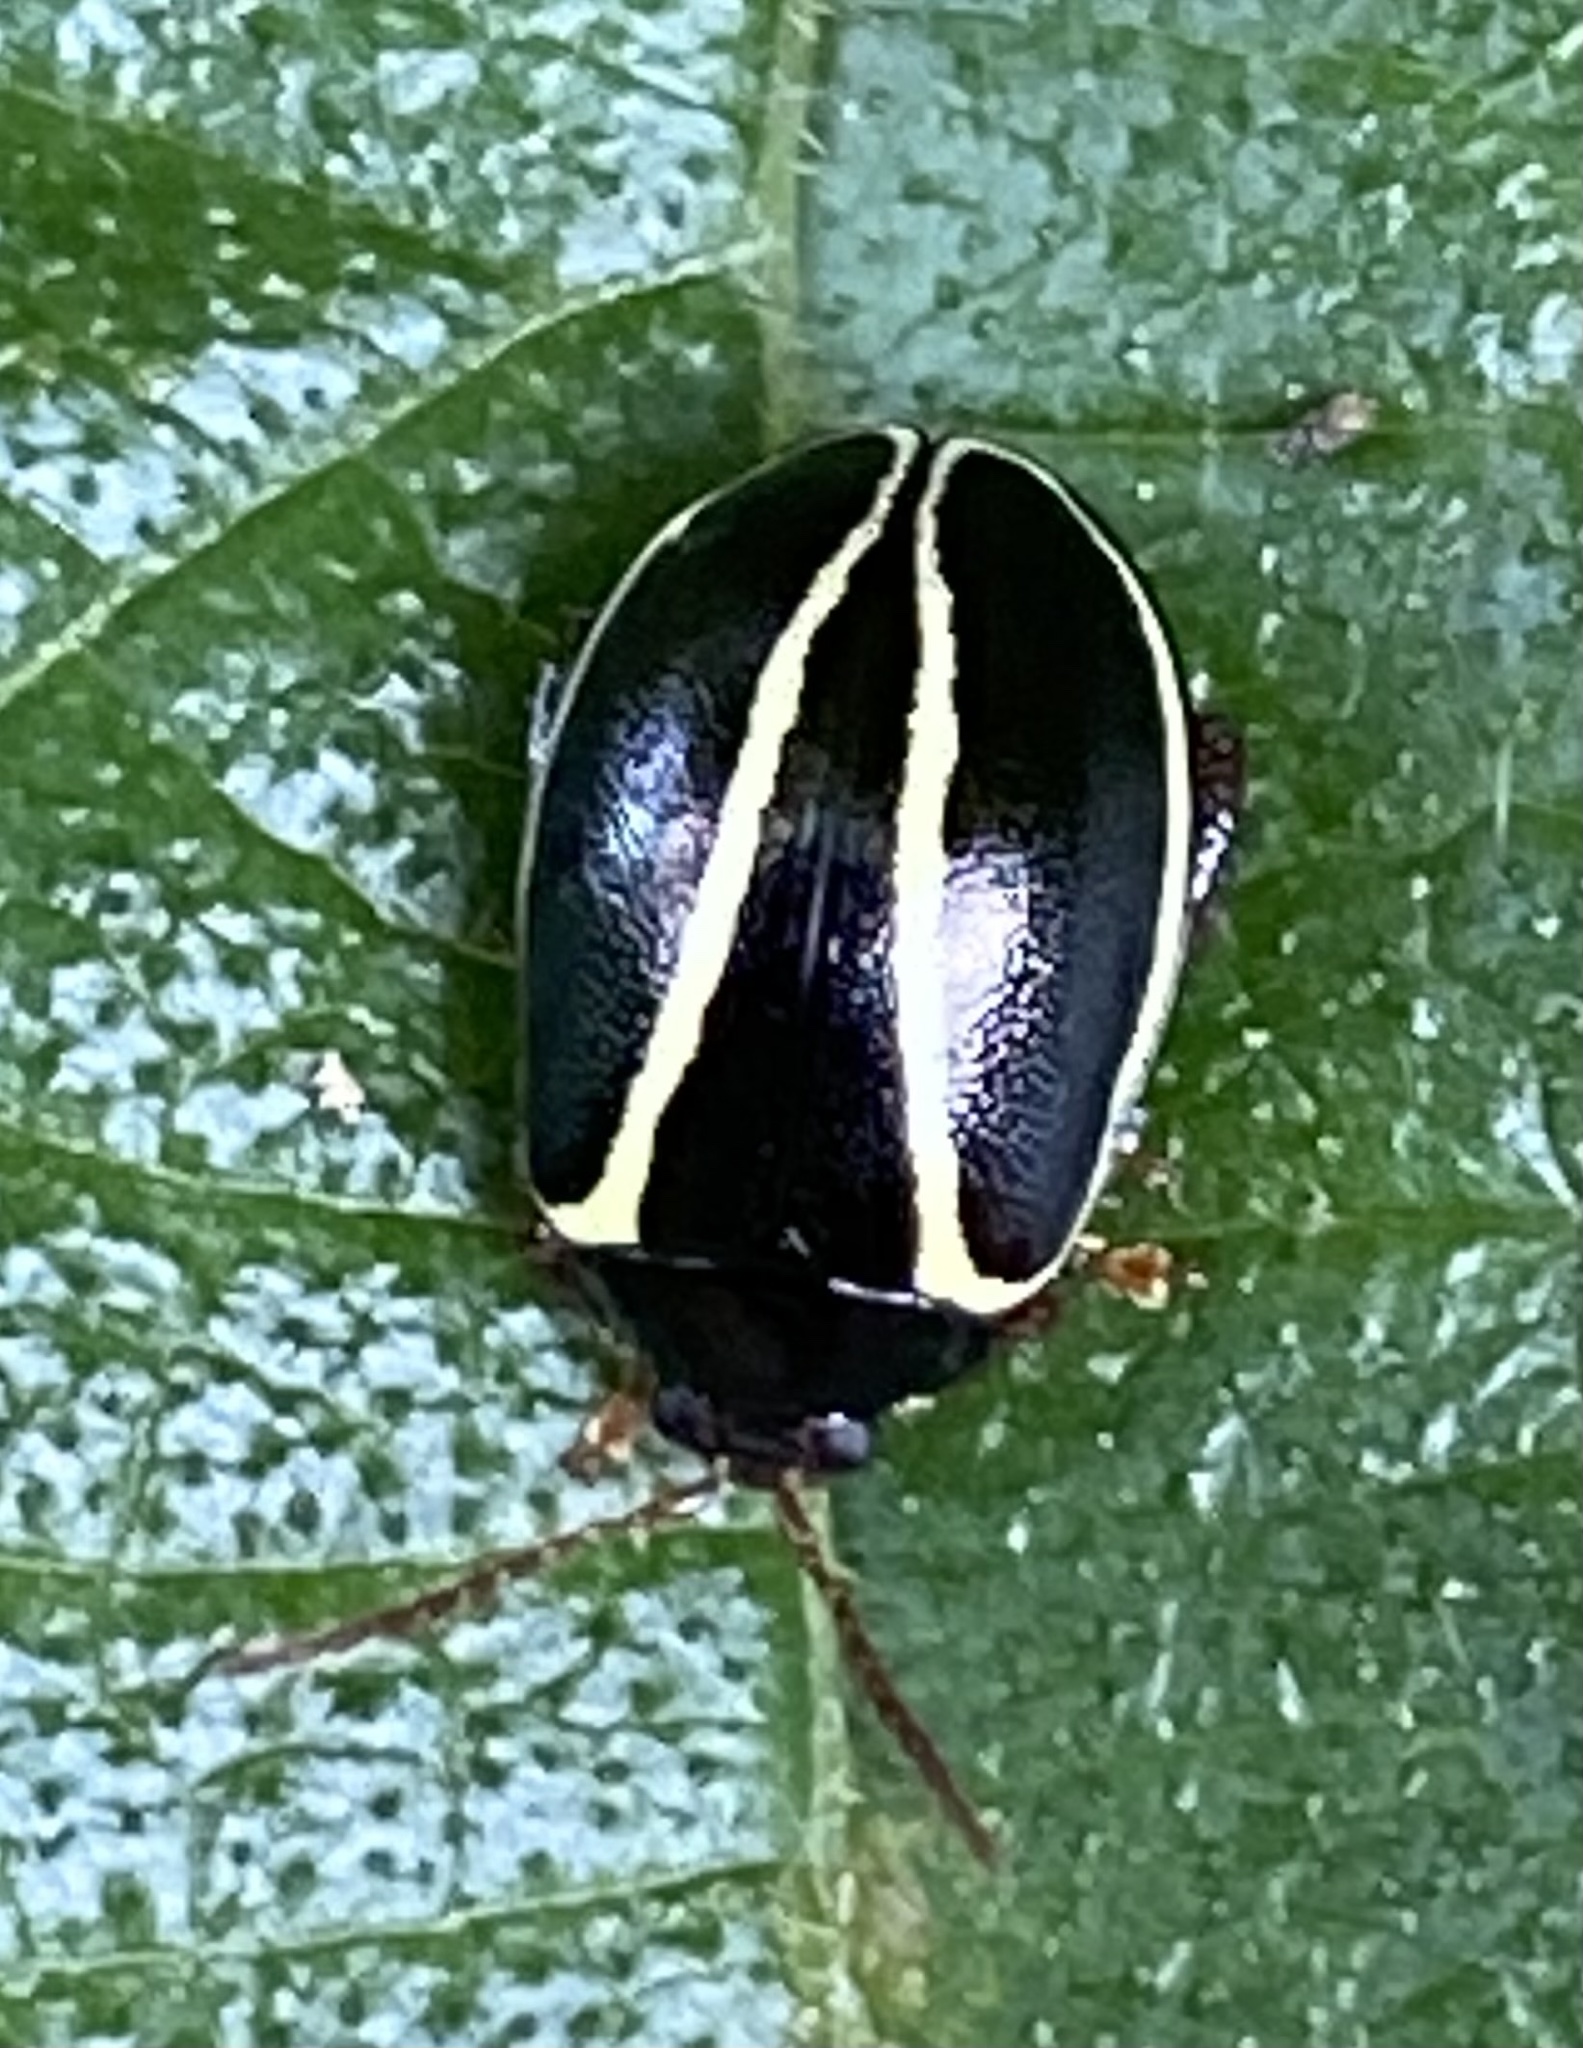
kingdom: Animalia
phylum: Arthropoda
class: Insecta
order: Coleoptera
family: Chrysomelidae
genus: Alagoasa
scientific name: Alagoasa
